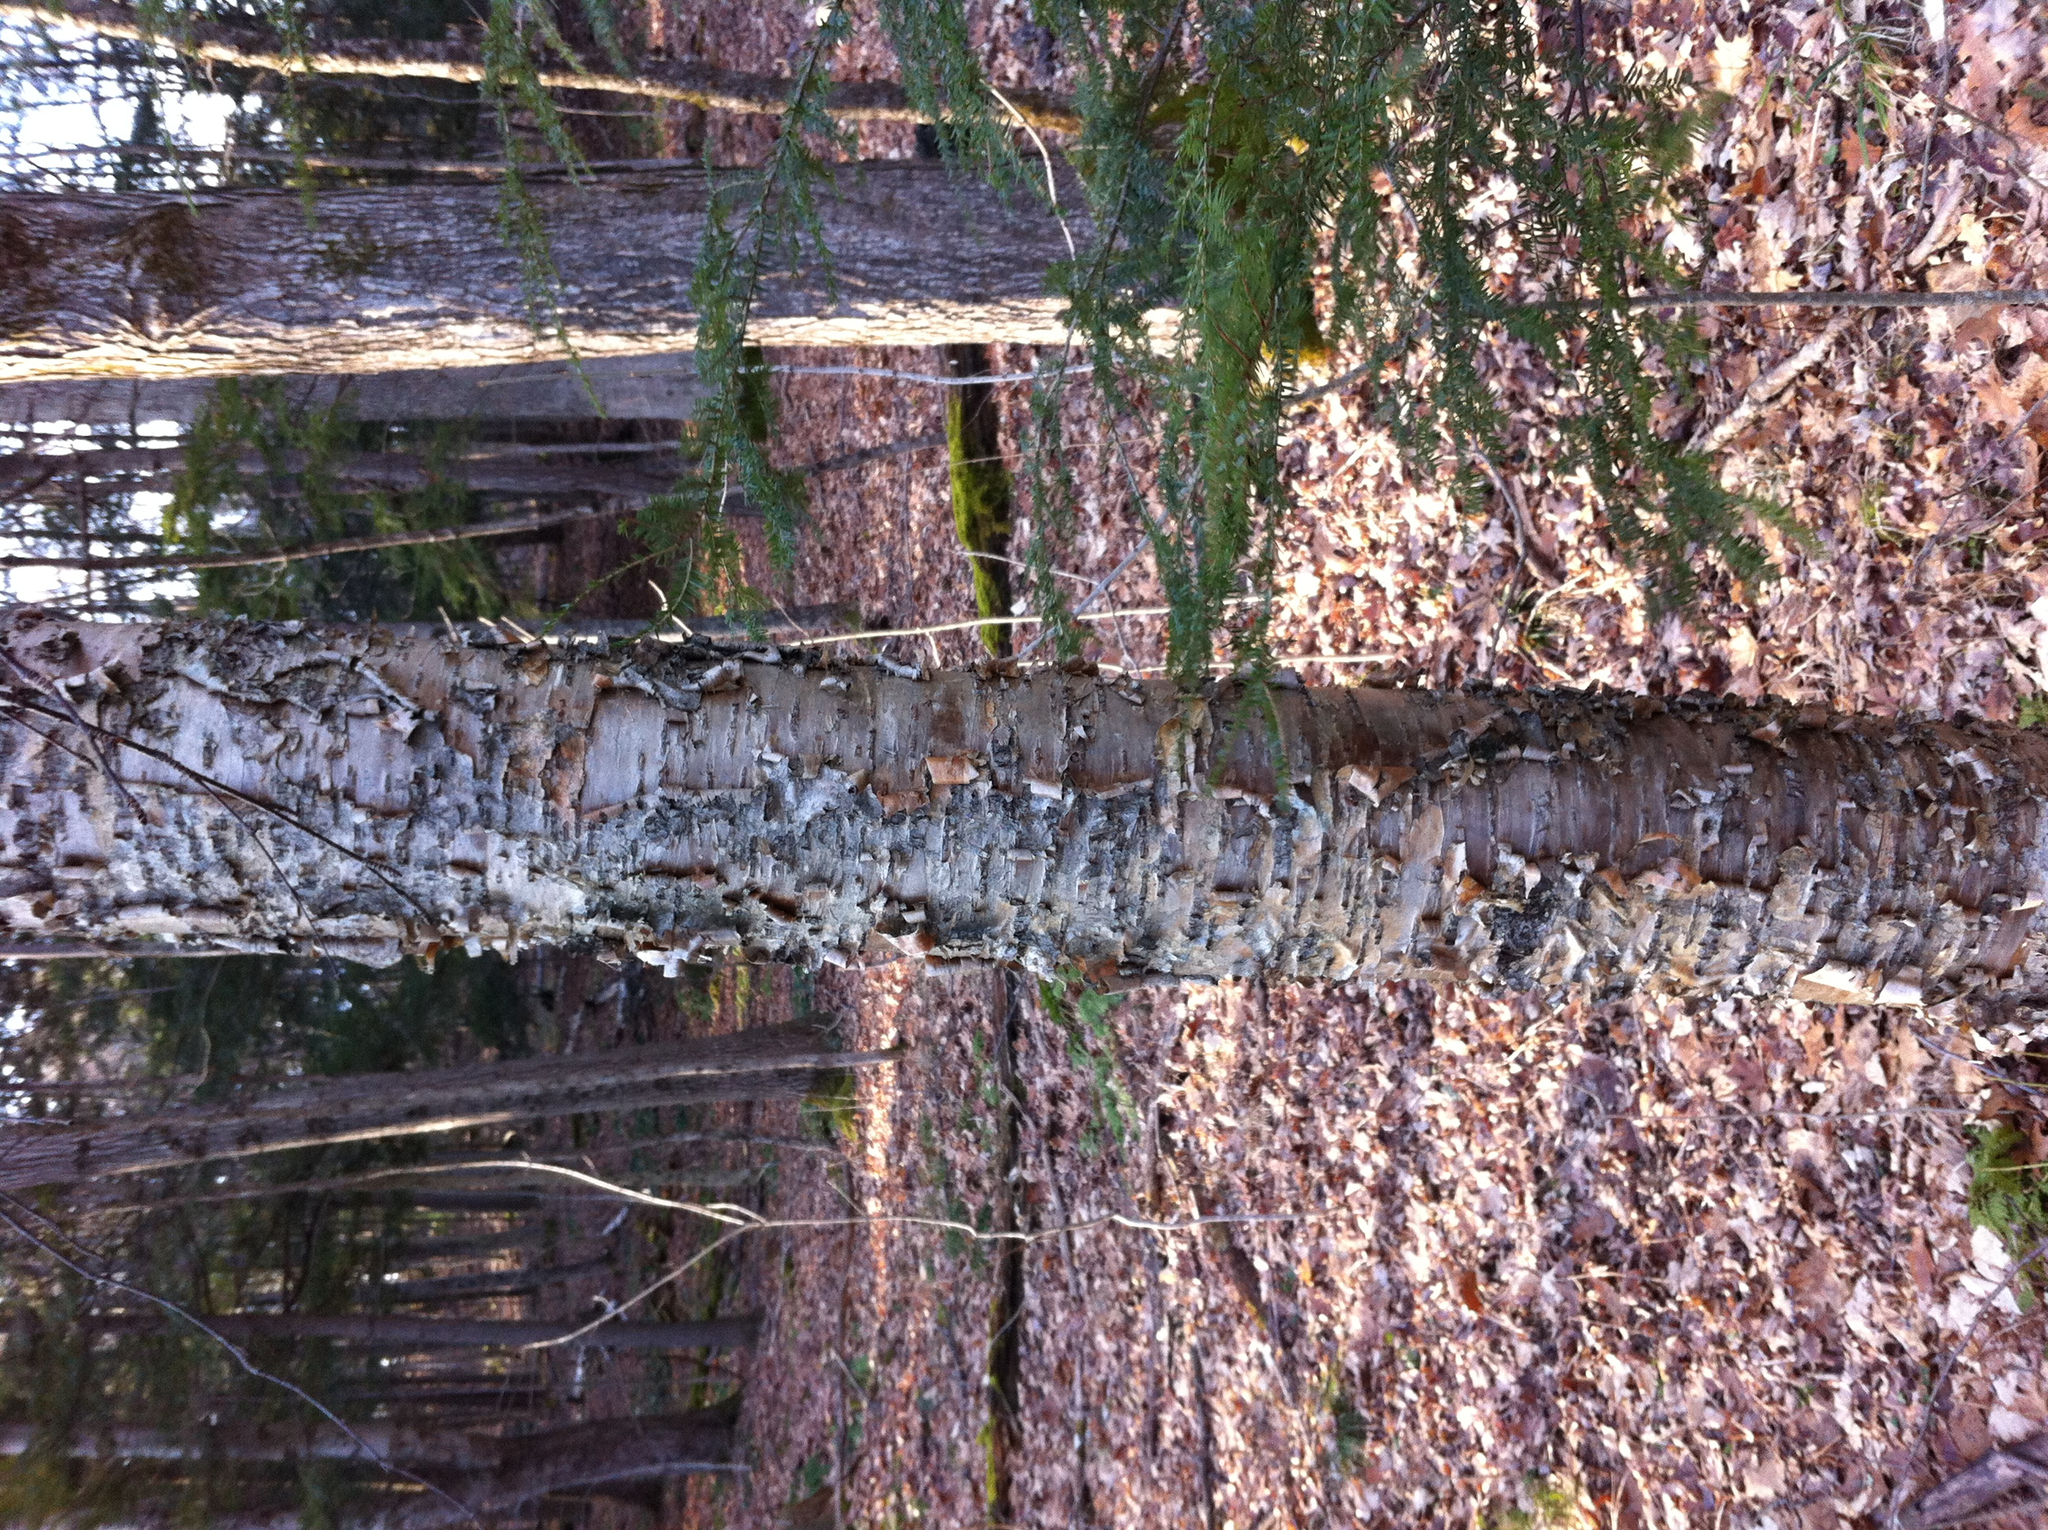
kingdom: Plantae
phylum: Tracheophyta
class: Magnoliopsida
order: Fagales
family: Betulaceae
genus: Betula
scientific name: Betula alleghaniensis
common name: Yellow birch
